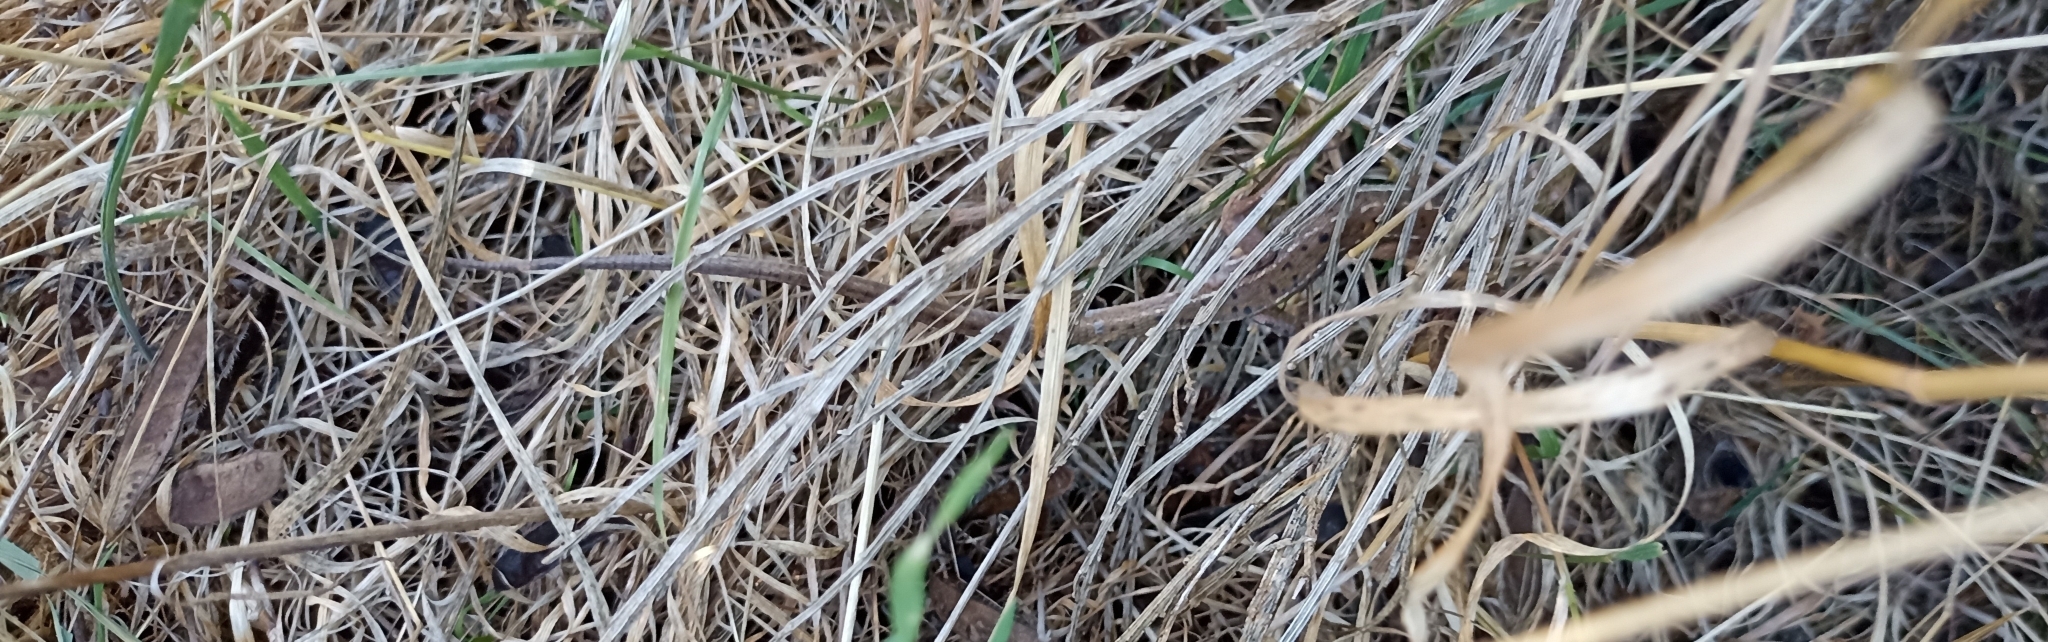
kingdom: Animalia
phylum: Chordata
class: Squamata
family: Lacertidae
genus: Lacerta
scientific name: Lacerta bilineata
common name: Western green lizard
